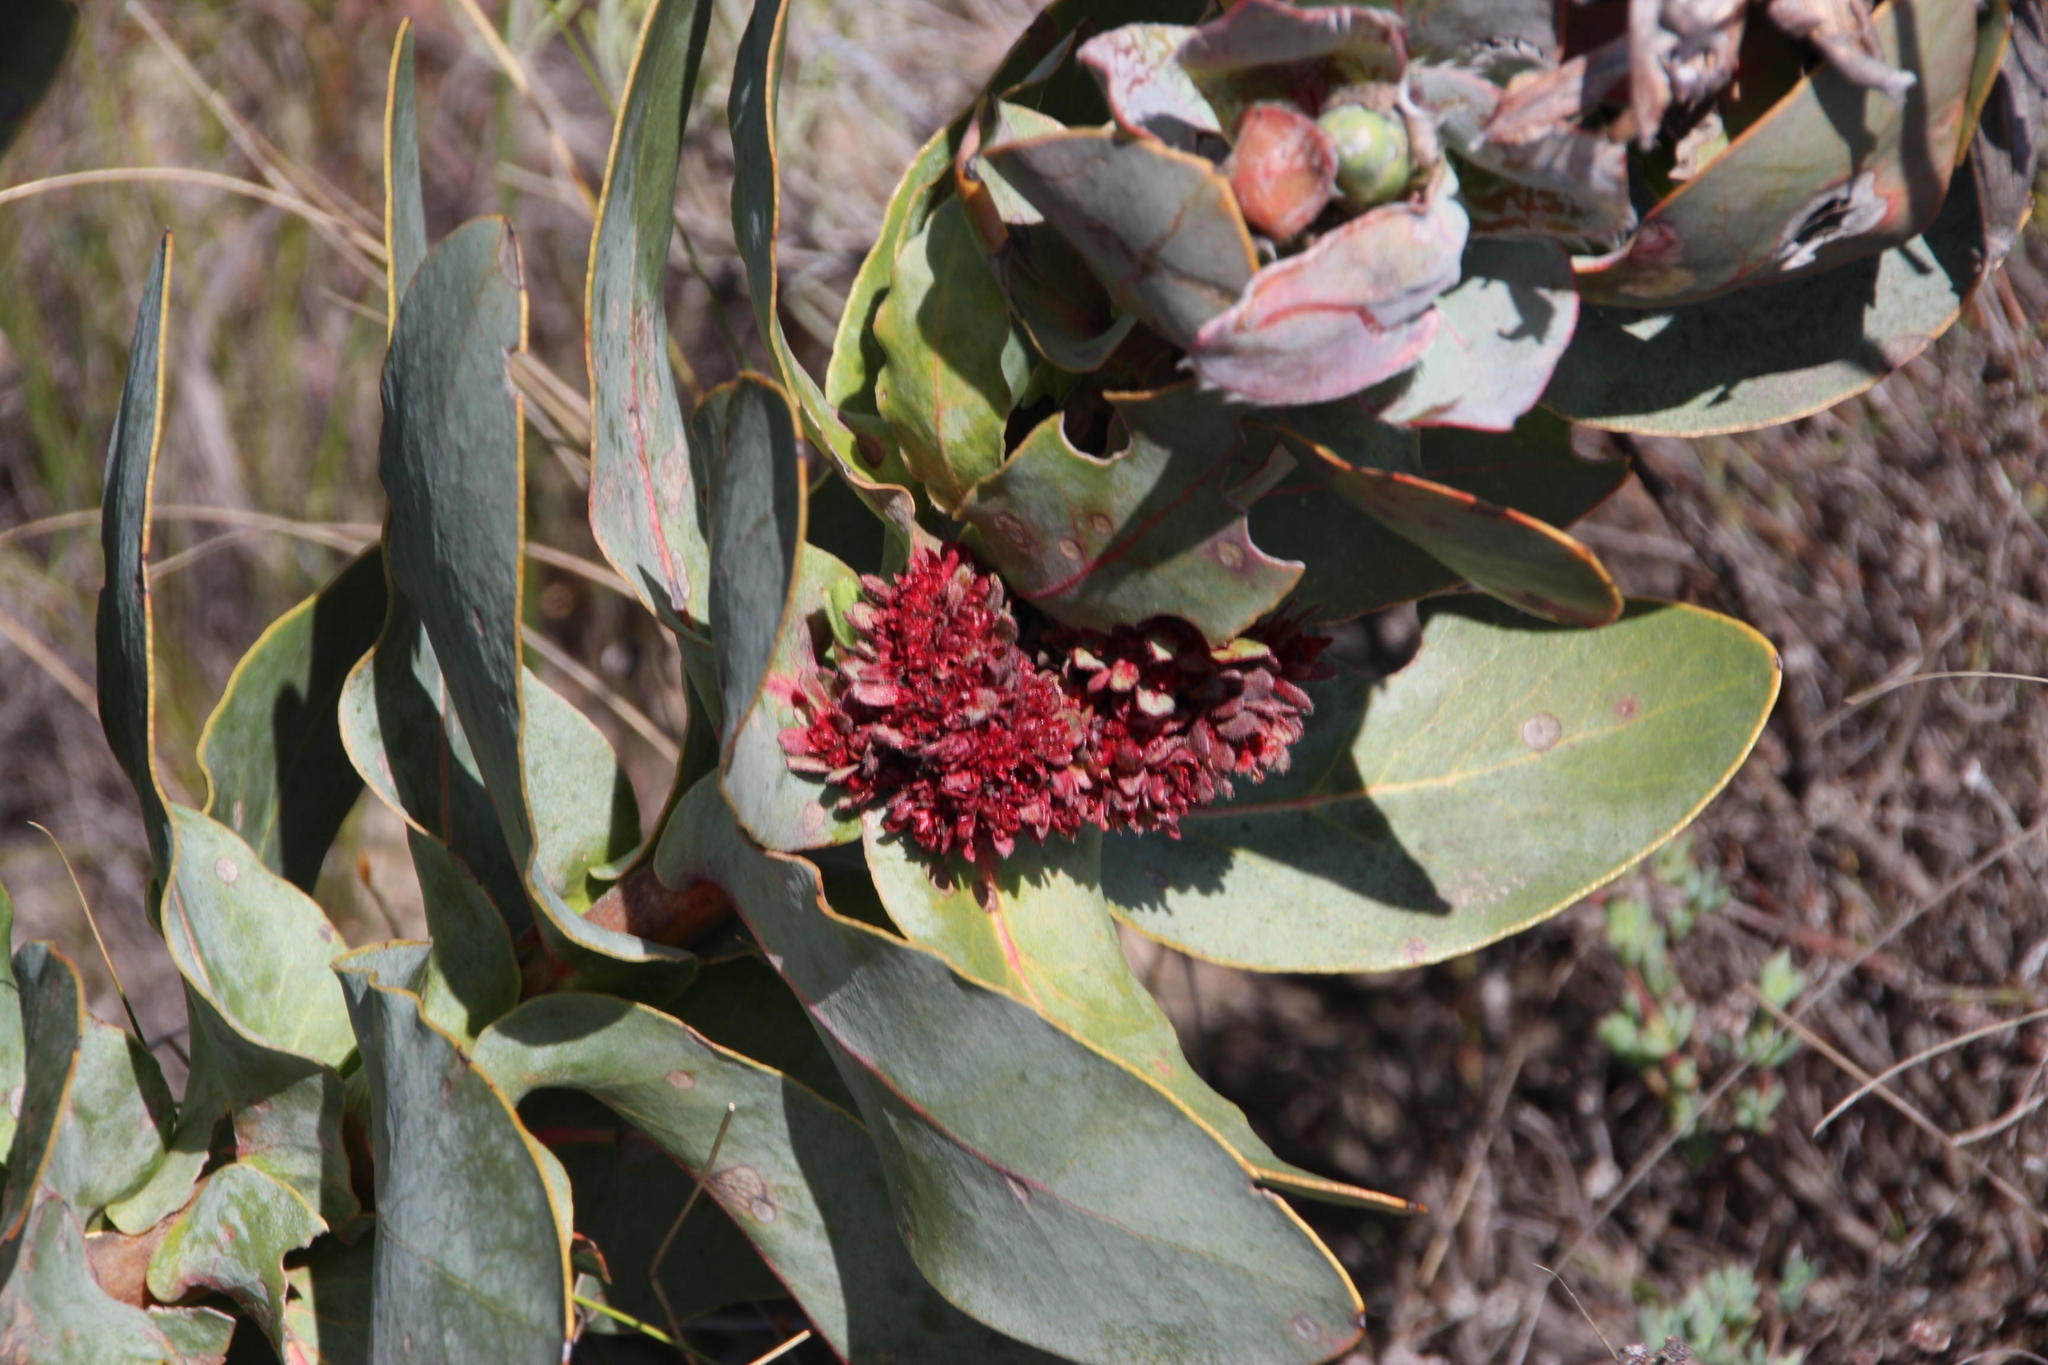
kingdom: Bacteria
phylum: Firmicutes
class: Bacilli
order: Acholeplasmatales
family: Acholeplasmataceae
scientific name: Acholeplasmataceae
